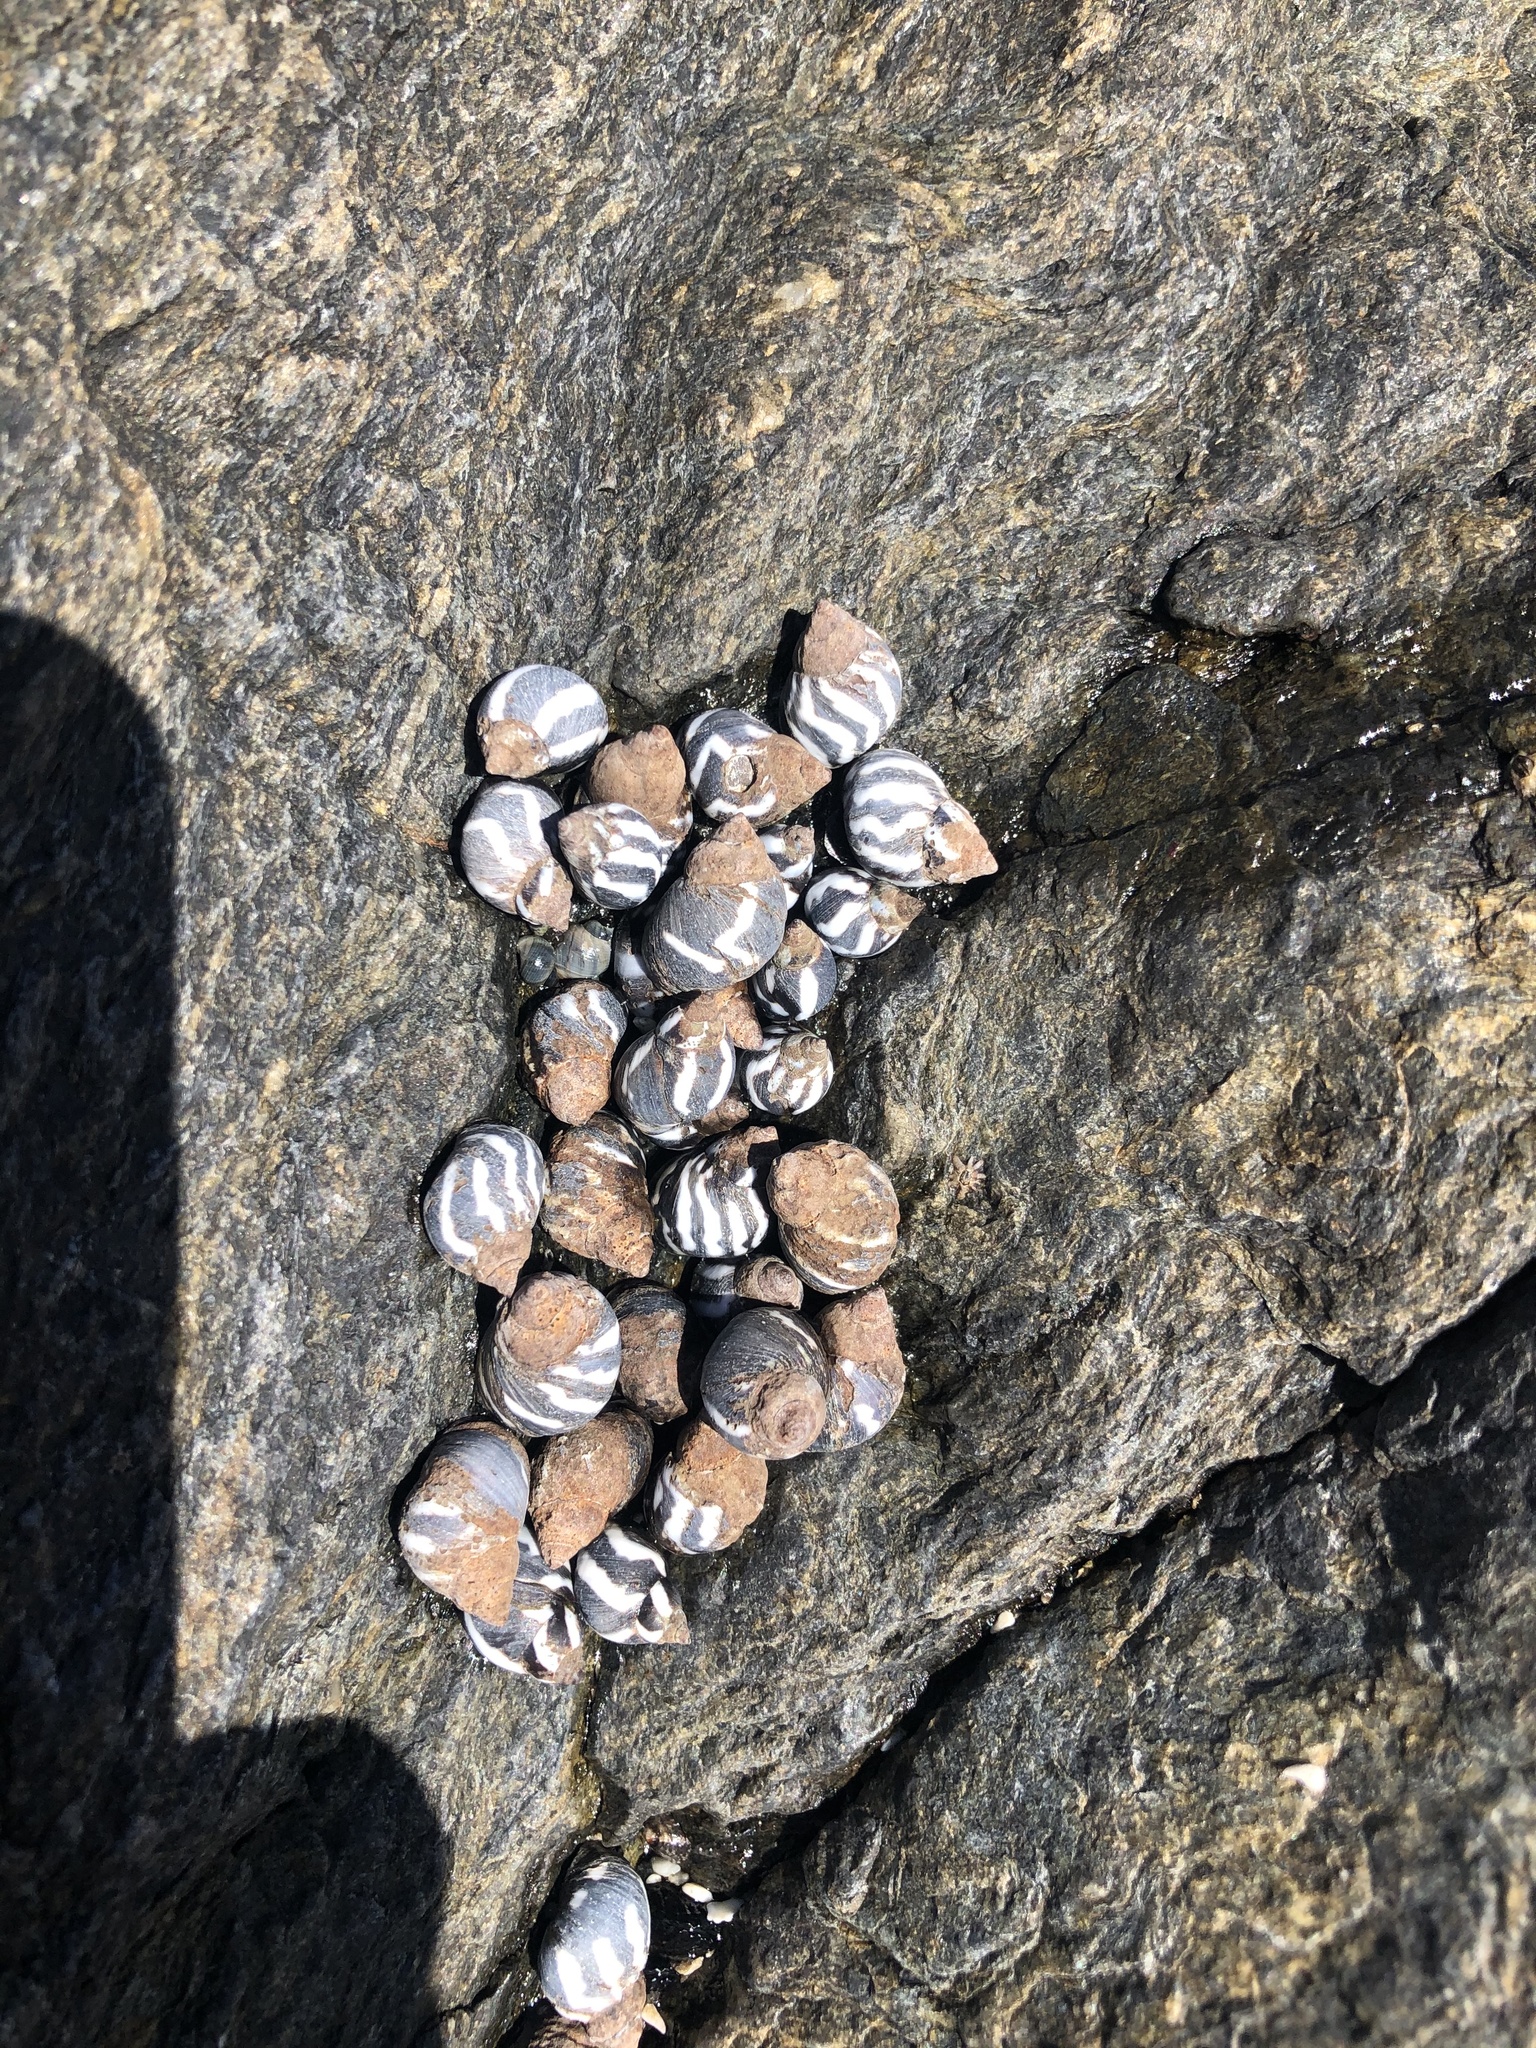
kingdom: Animalia
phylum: Mollusca
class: Gastropoda
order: Littorinimorpha
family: Littorinidae
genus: Echinolittorina
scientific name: Echinolittorina peruviana
